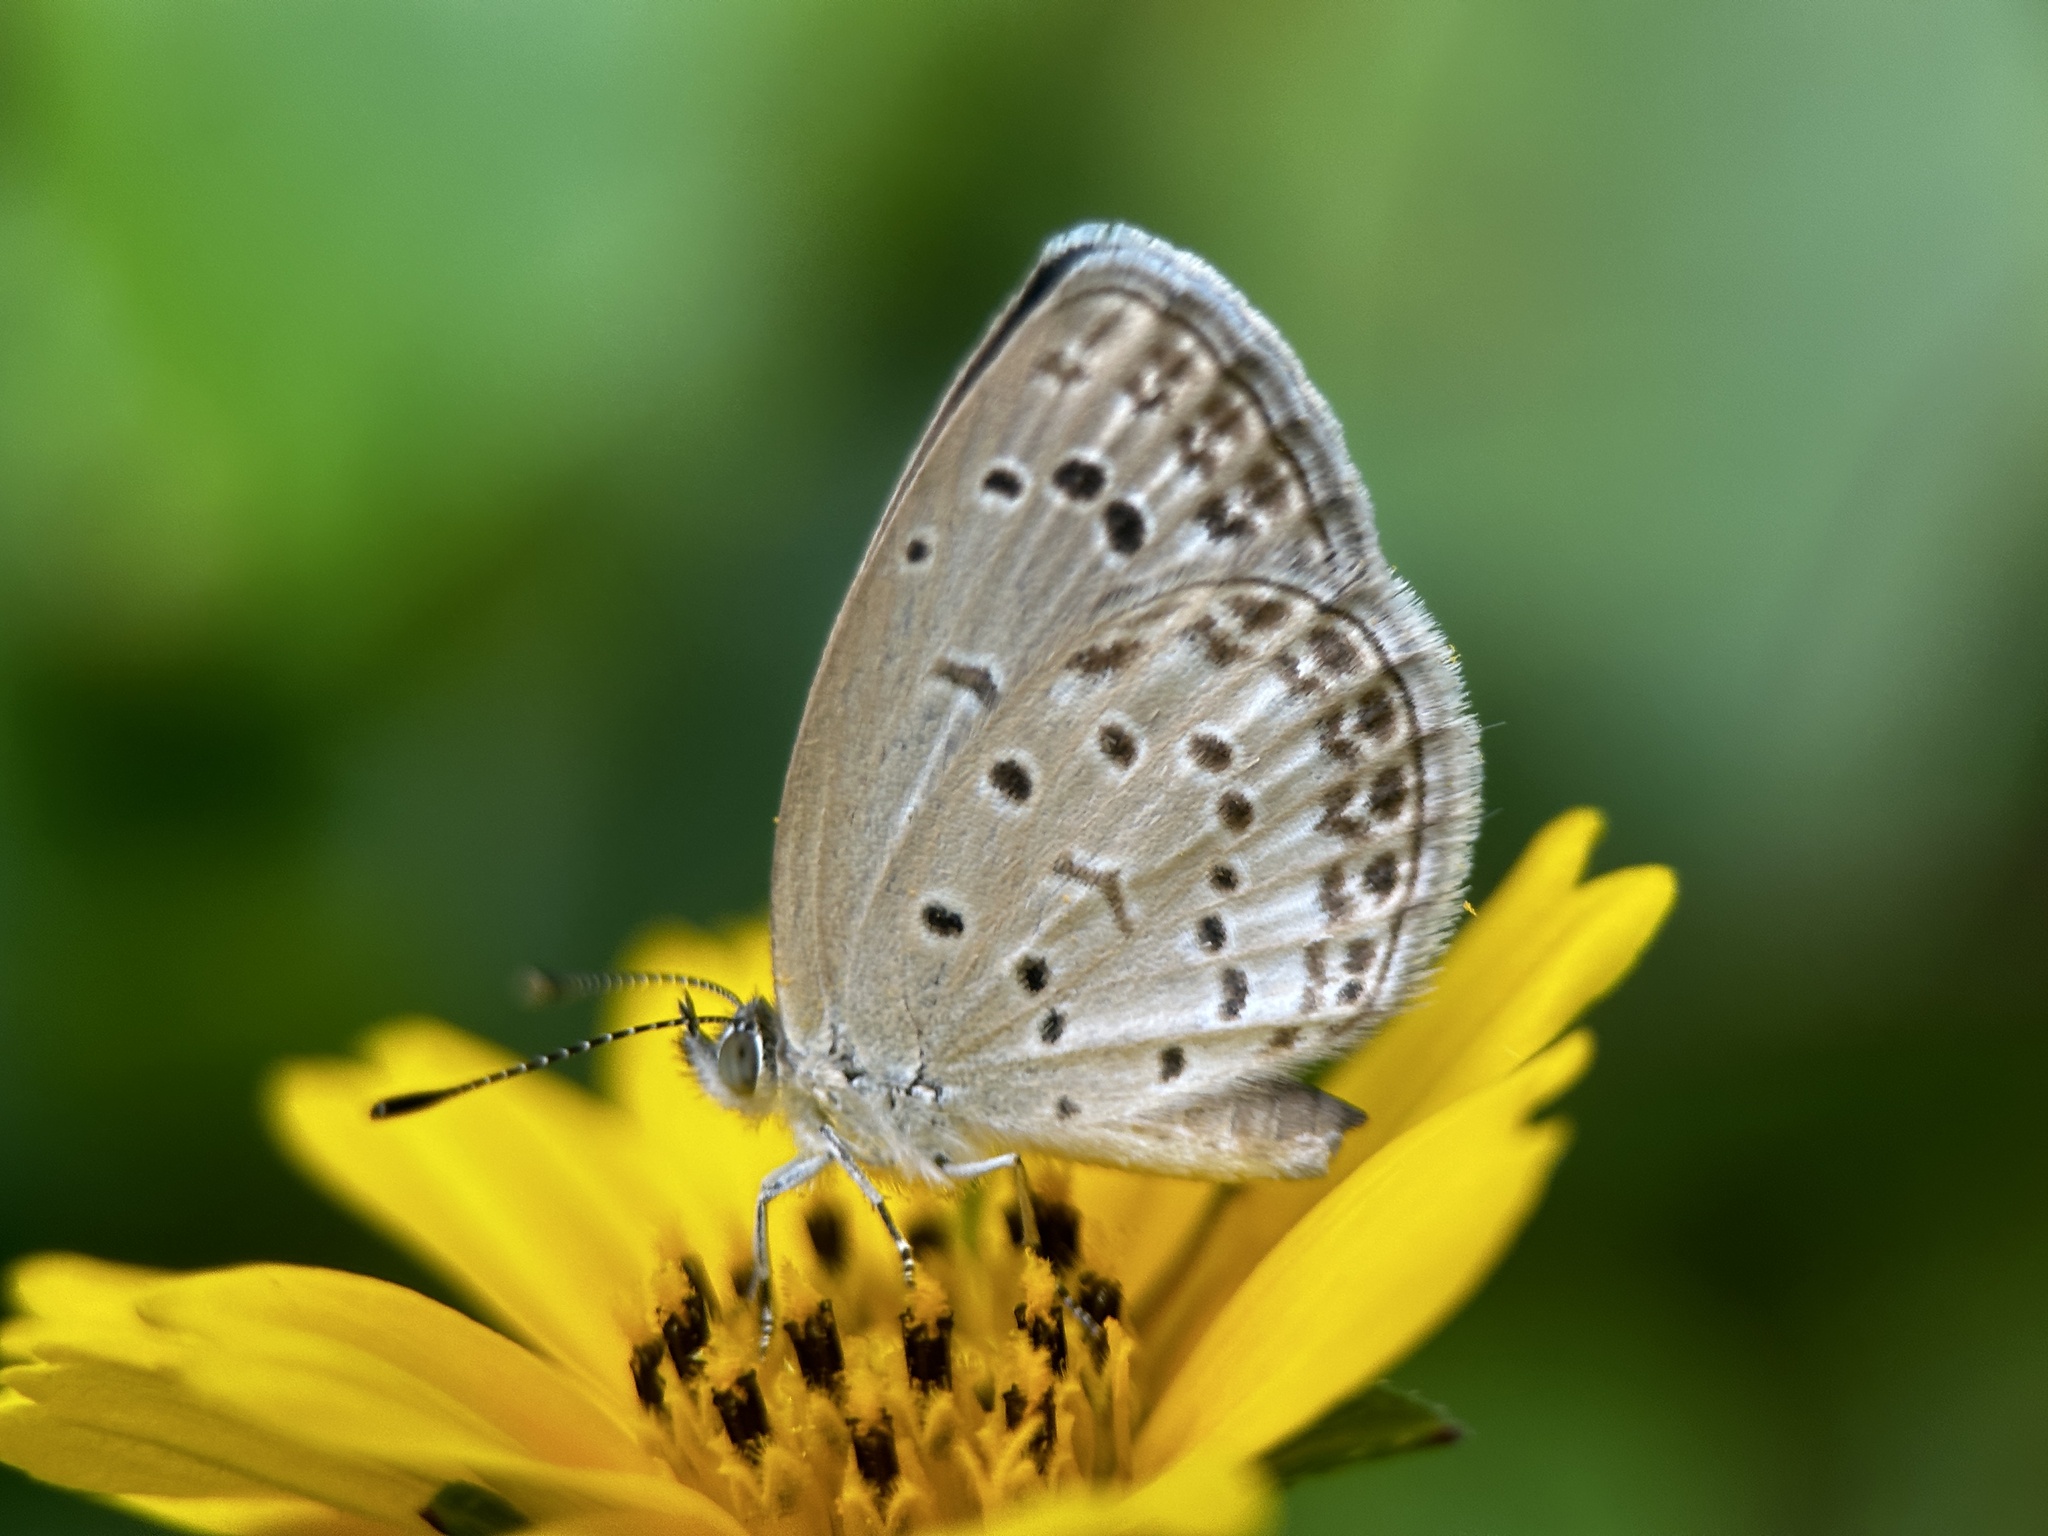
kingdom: Animalia
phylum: Arthropoda
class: Insecta
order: Lepidoptera
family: Lycaenidae
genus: Pseudozizeeria
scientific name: Pseudozizeeria maha
